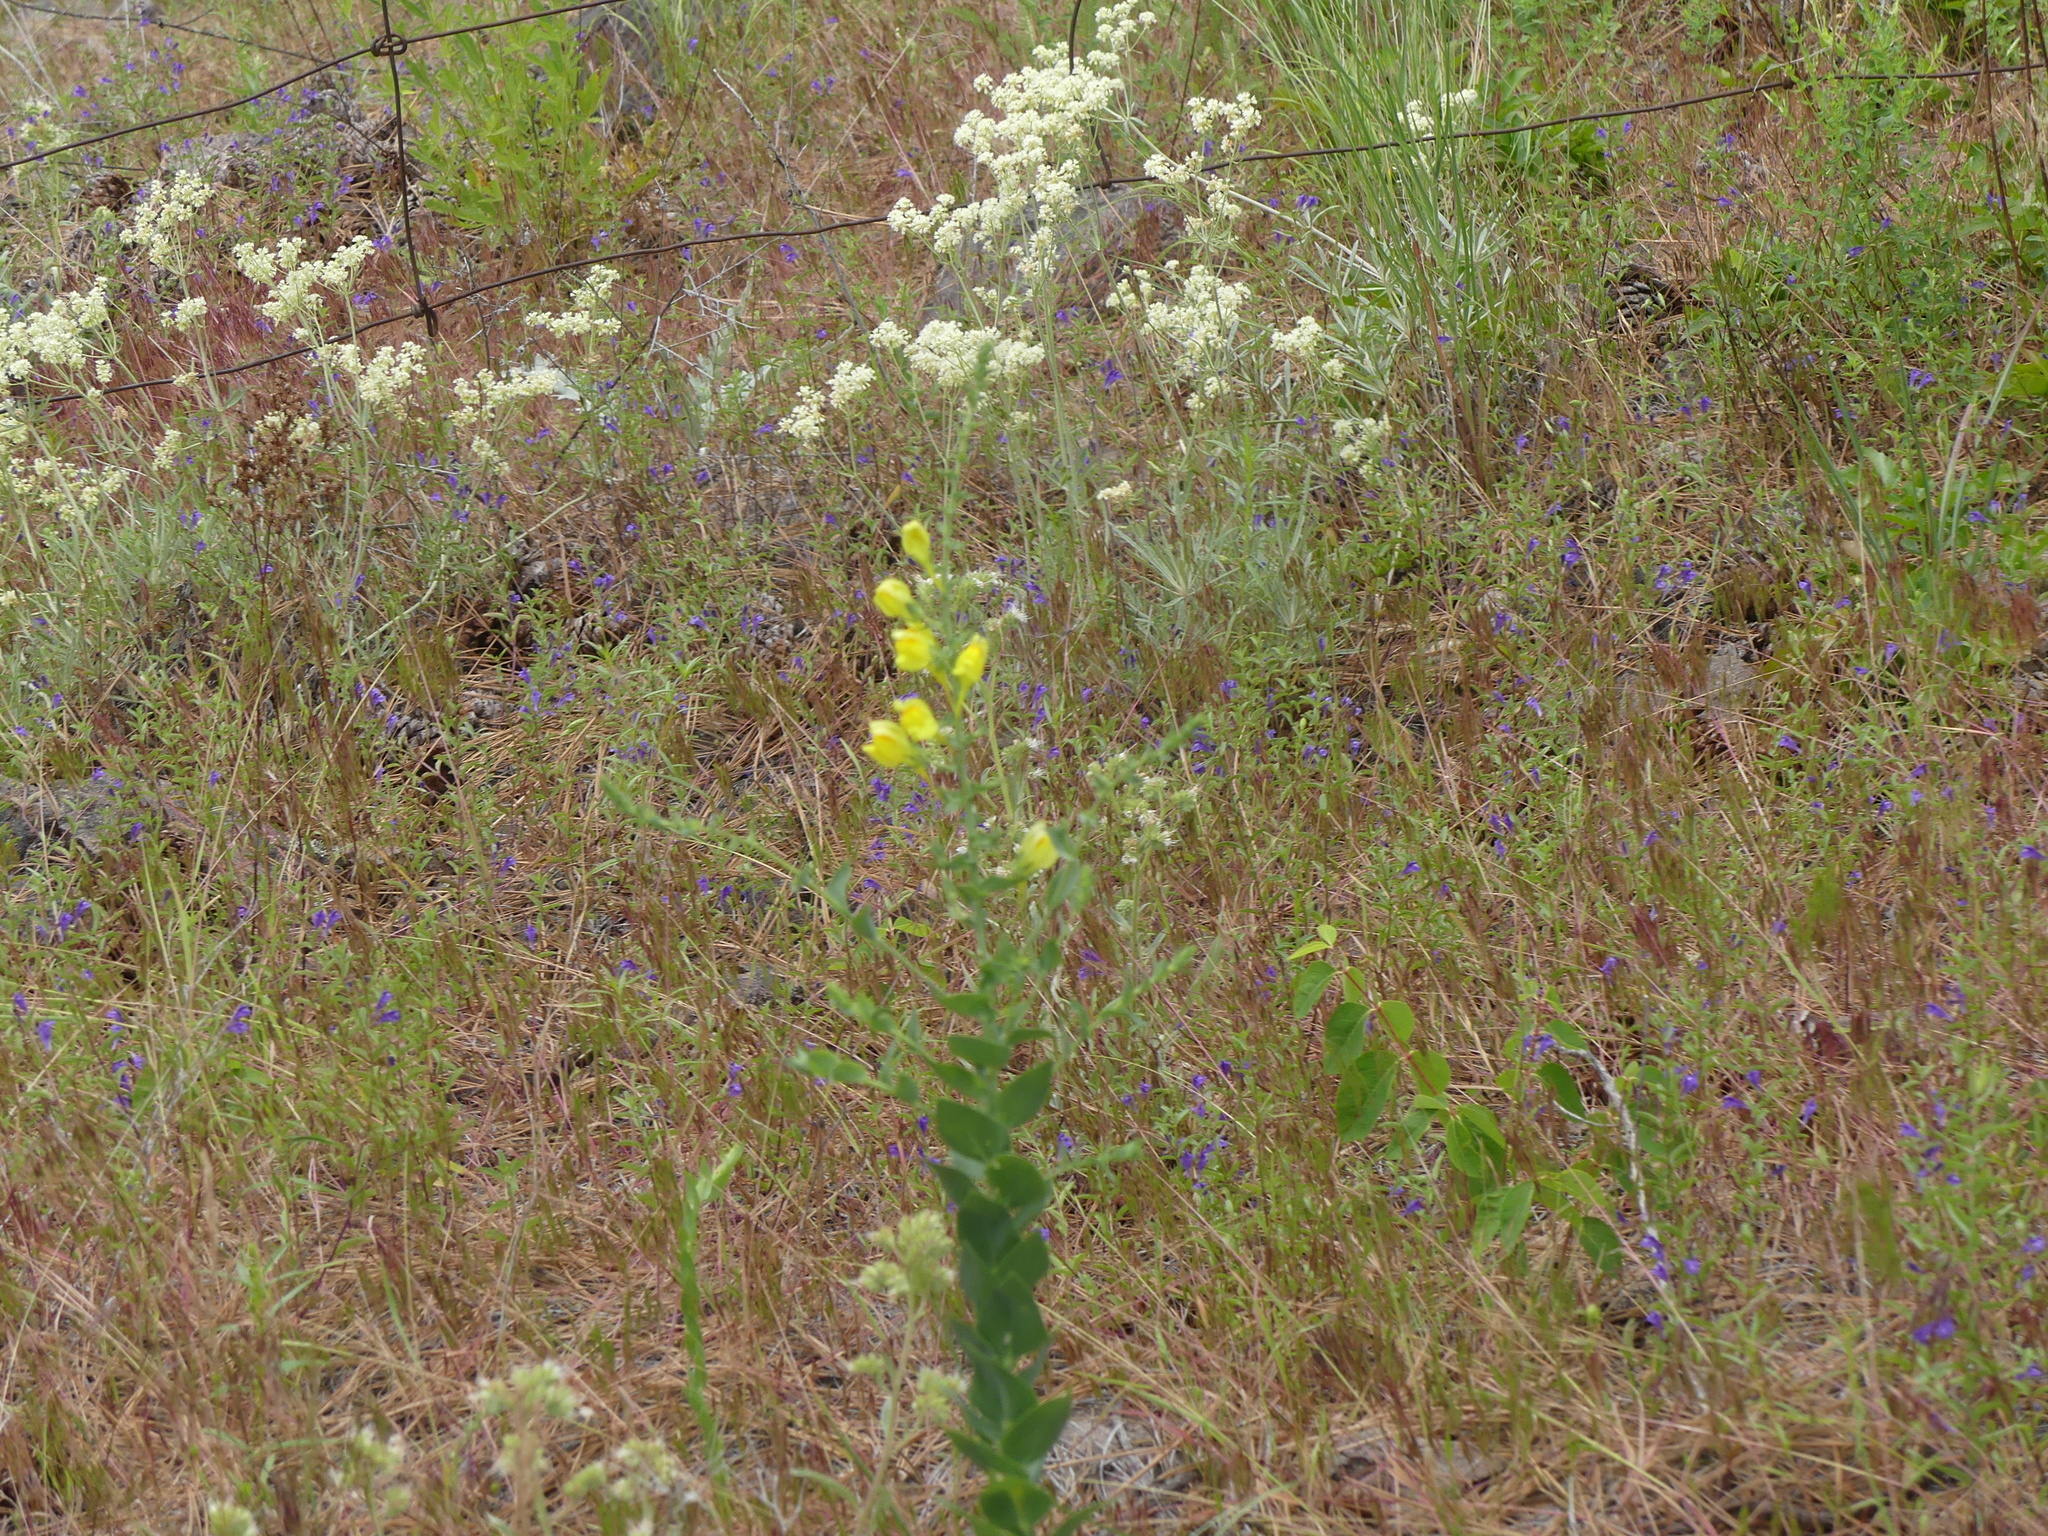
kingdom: Plantae
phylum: Tracheophyta
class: Magnoliopsida
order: Lamiales
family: Plantaginaceae
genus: Linaria
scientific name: Linaria dalmatica
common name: Dalmatian toadflax
